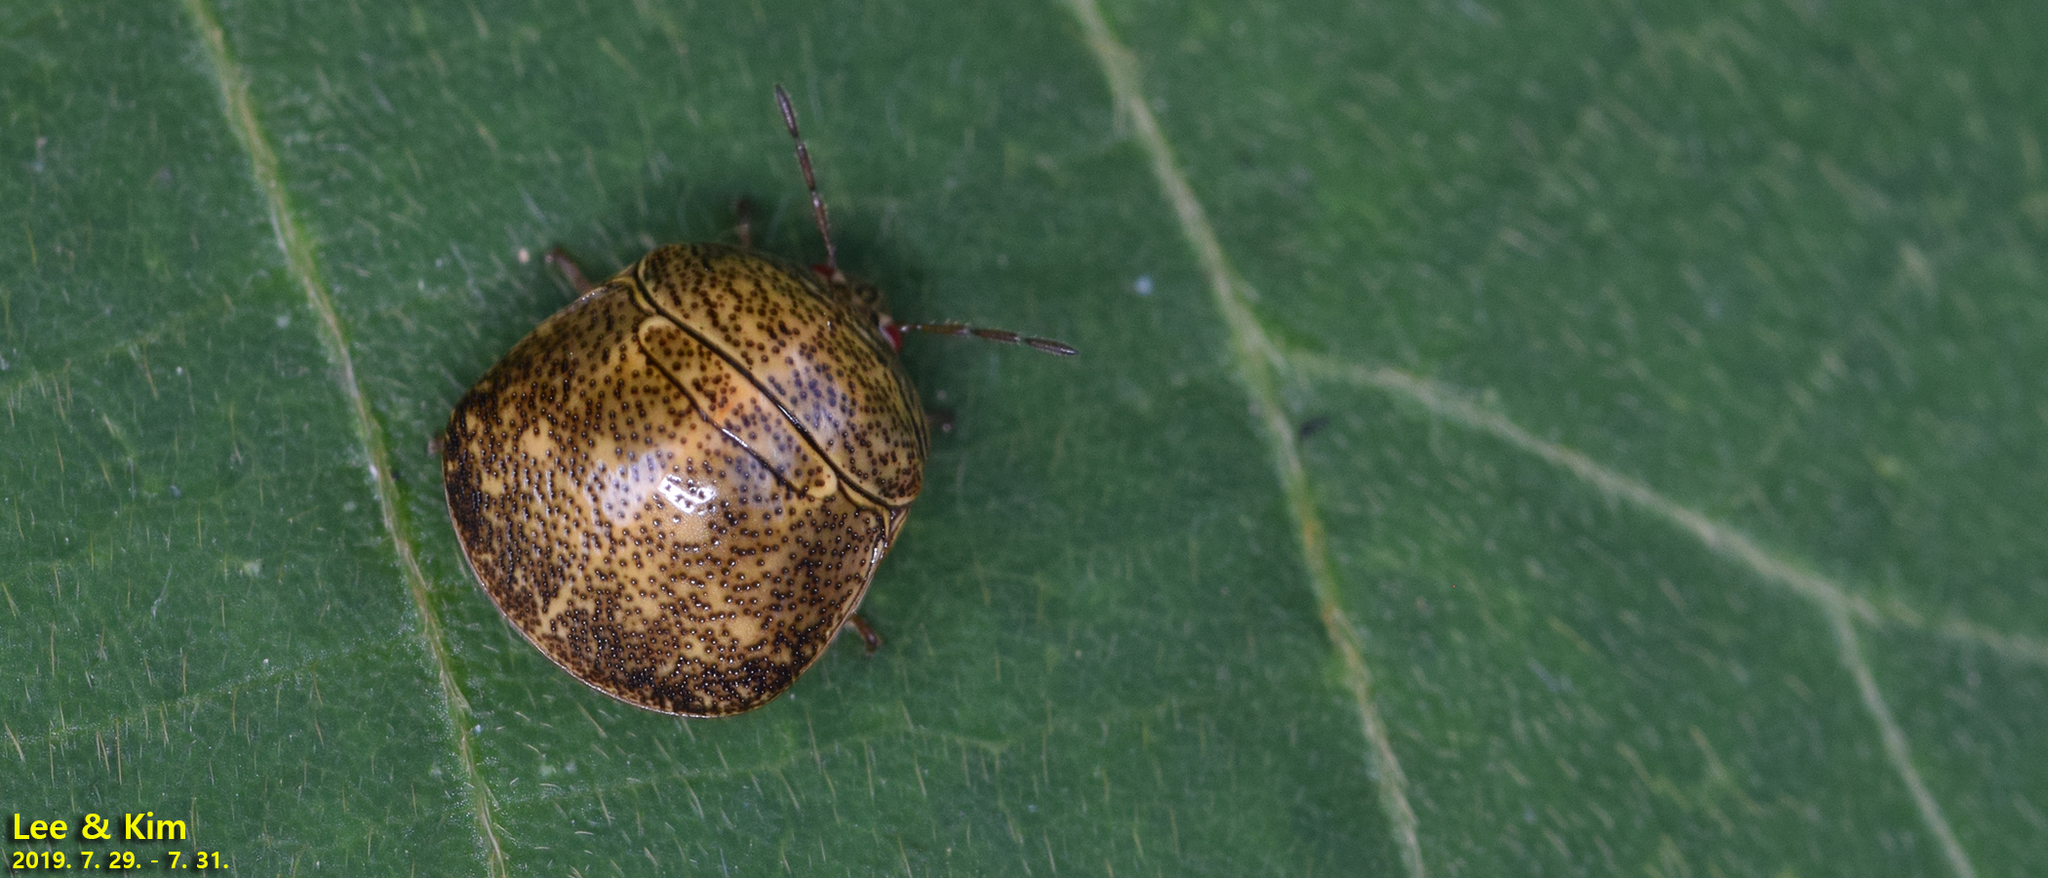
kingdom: Animalia
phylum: Arthropoda
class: Insecta
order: Hemiptera
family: Plataspidae
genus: Megacopta
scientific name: Megacopta cribraria
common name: Bean plataspid
